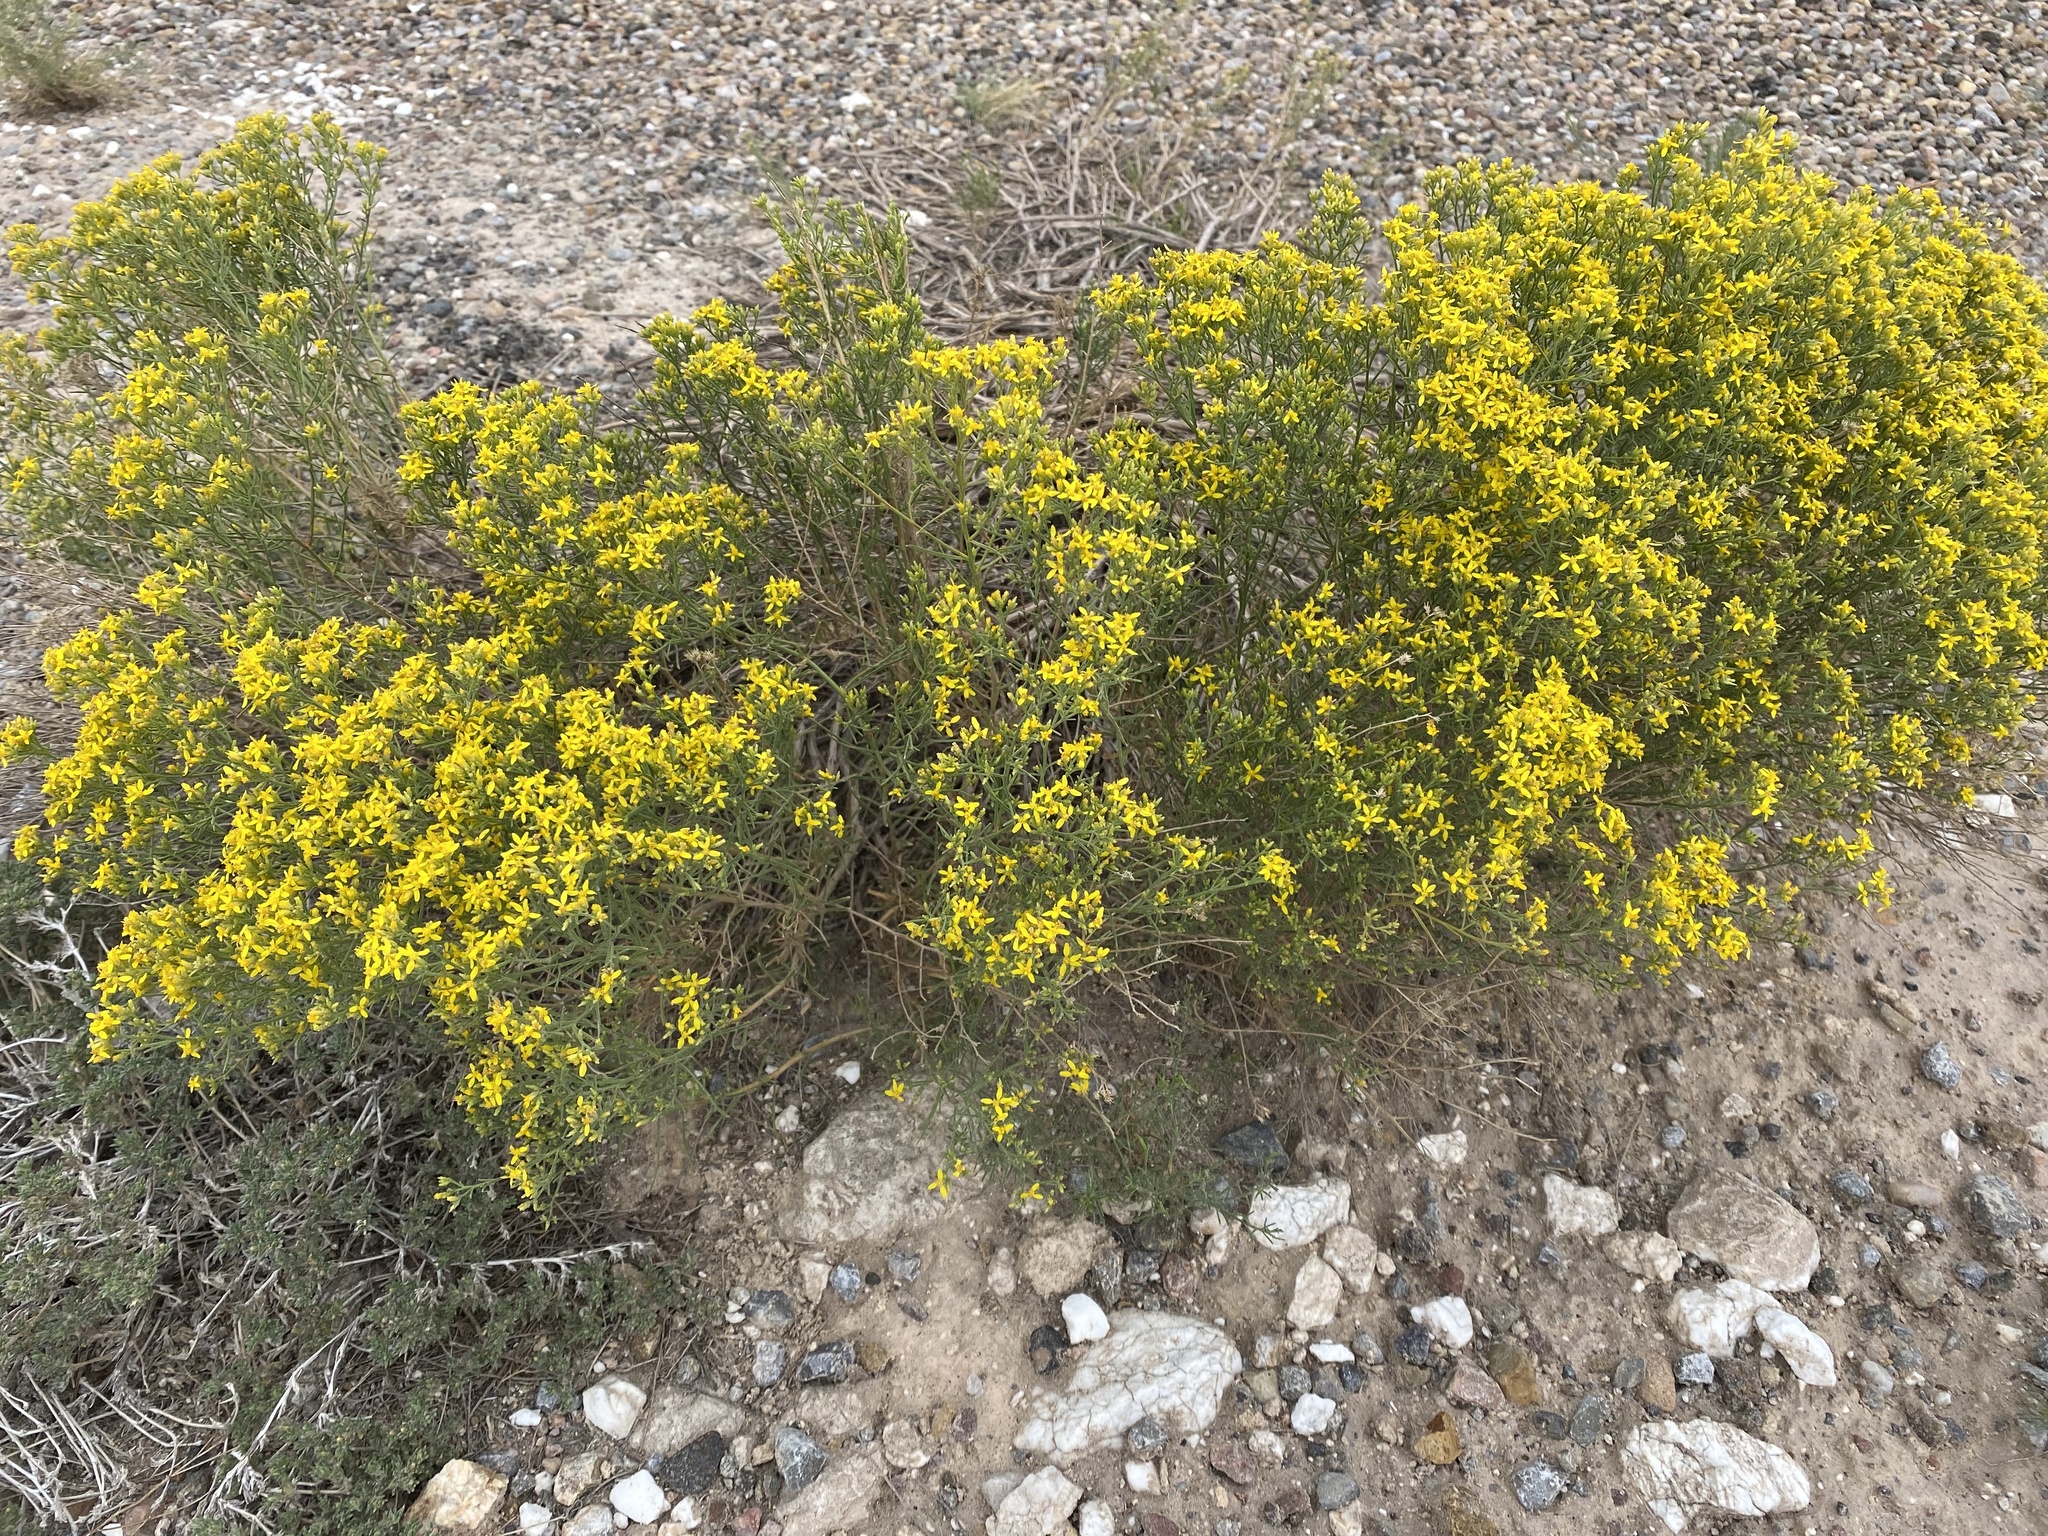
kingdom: Plantae
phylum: Tracheophyta
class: Magnoliopsida
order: Asterales
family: Asteraceae
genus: Gutierrezia
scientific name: Gutierrezia sarothrae
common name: Broom snakeweed
